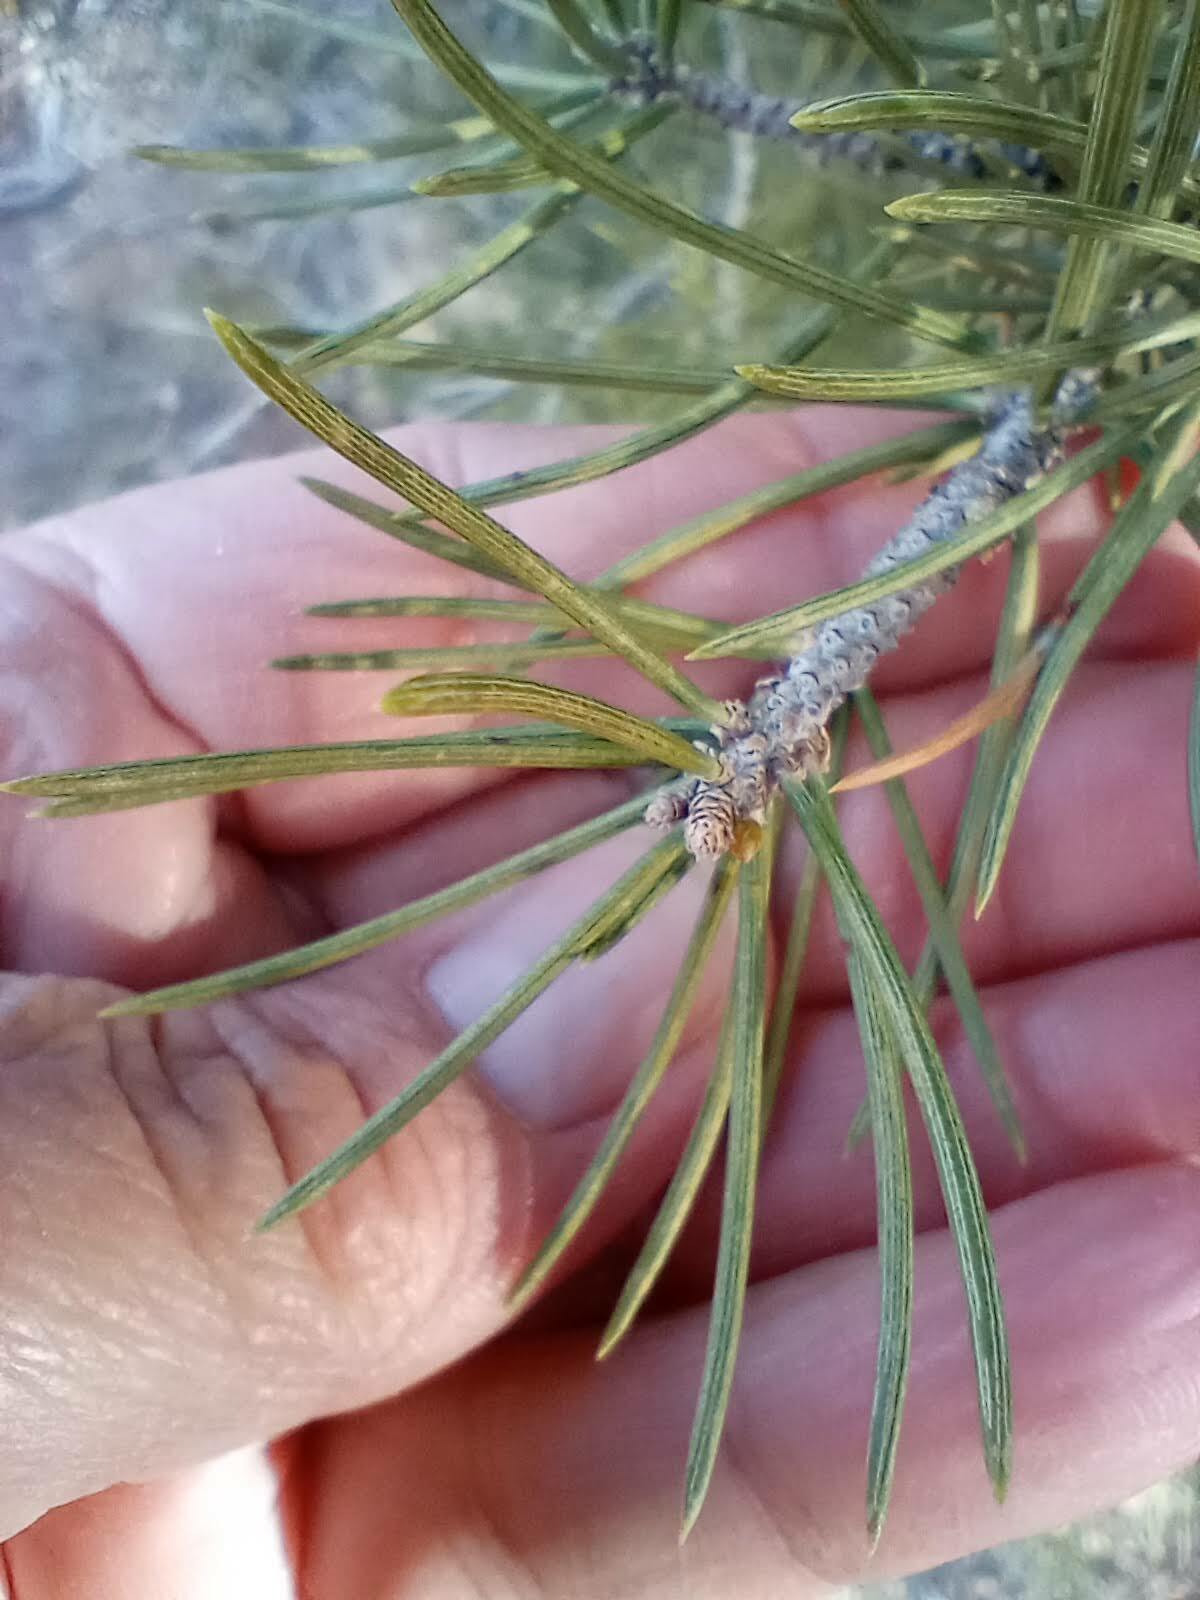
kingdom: Plantae
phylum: Tracheophyta
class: Pinopsida
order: Pinales
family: Pinaceae
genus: Pinus
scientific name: Pinus monophylla
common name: One-leaved nut pine
